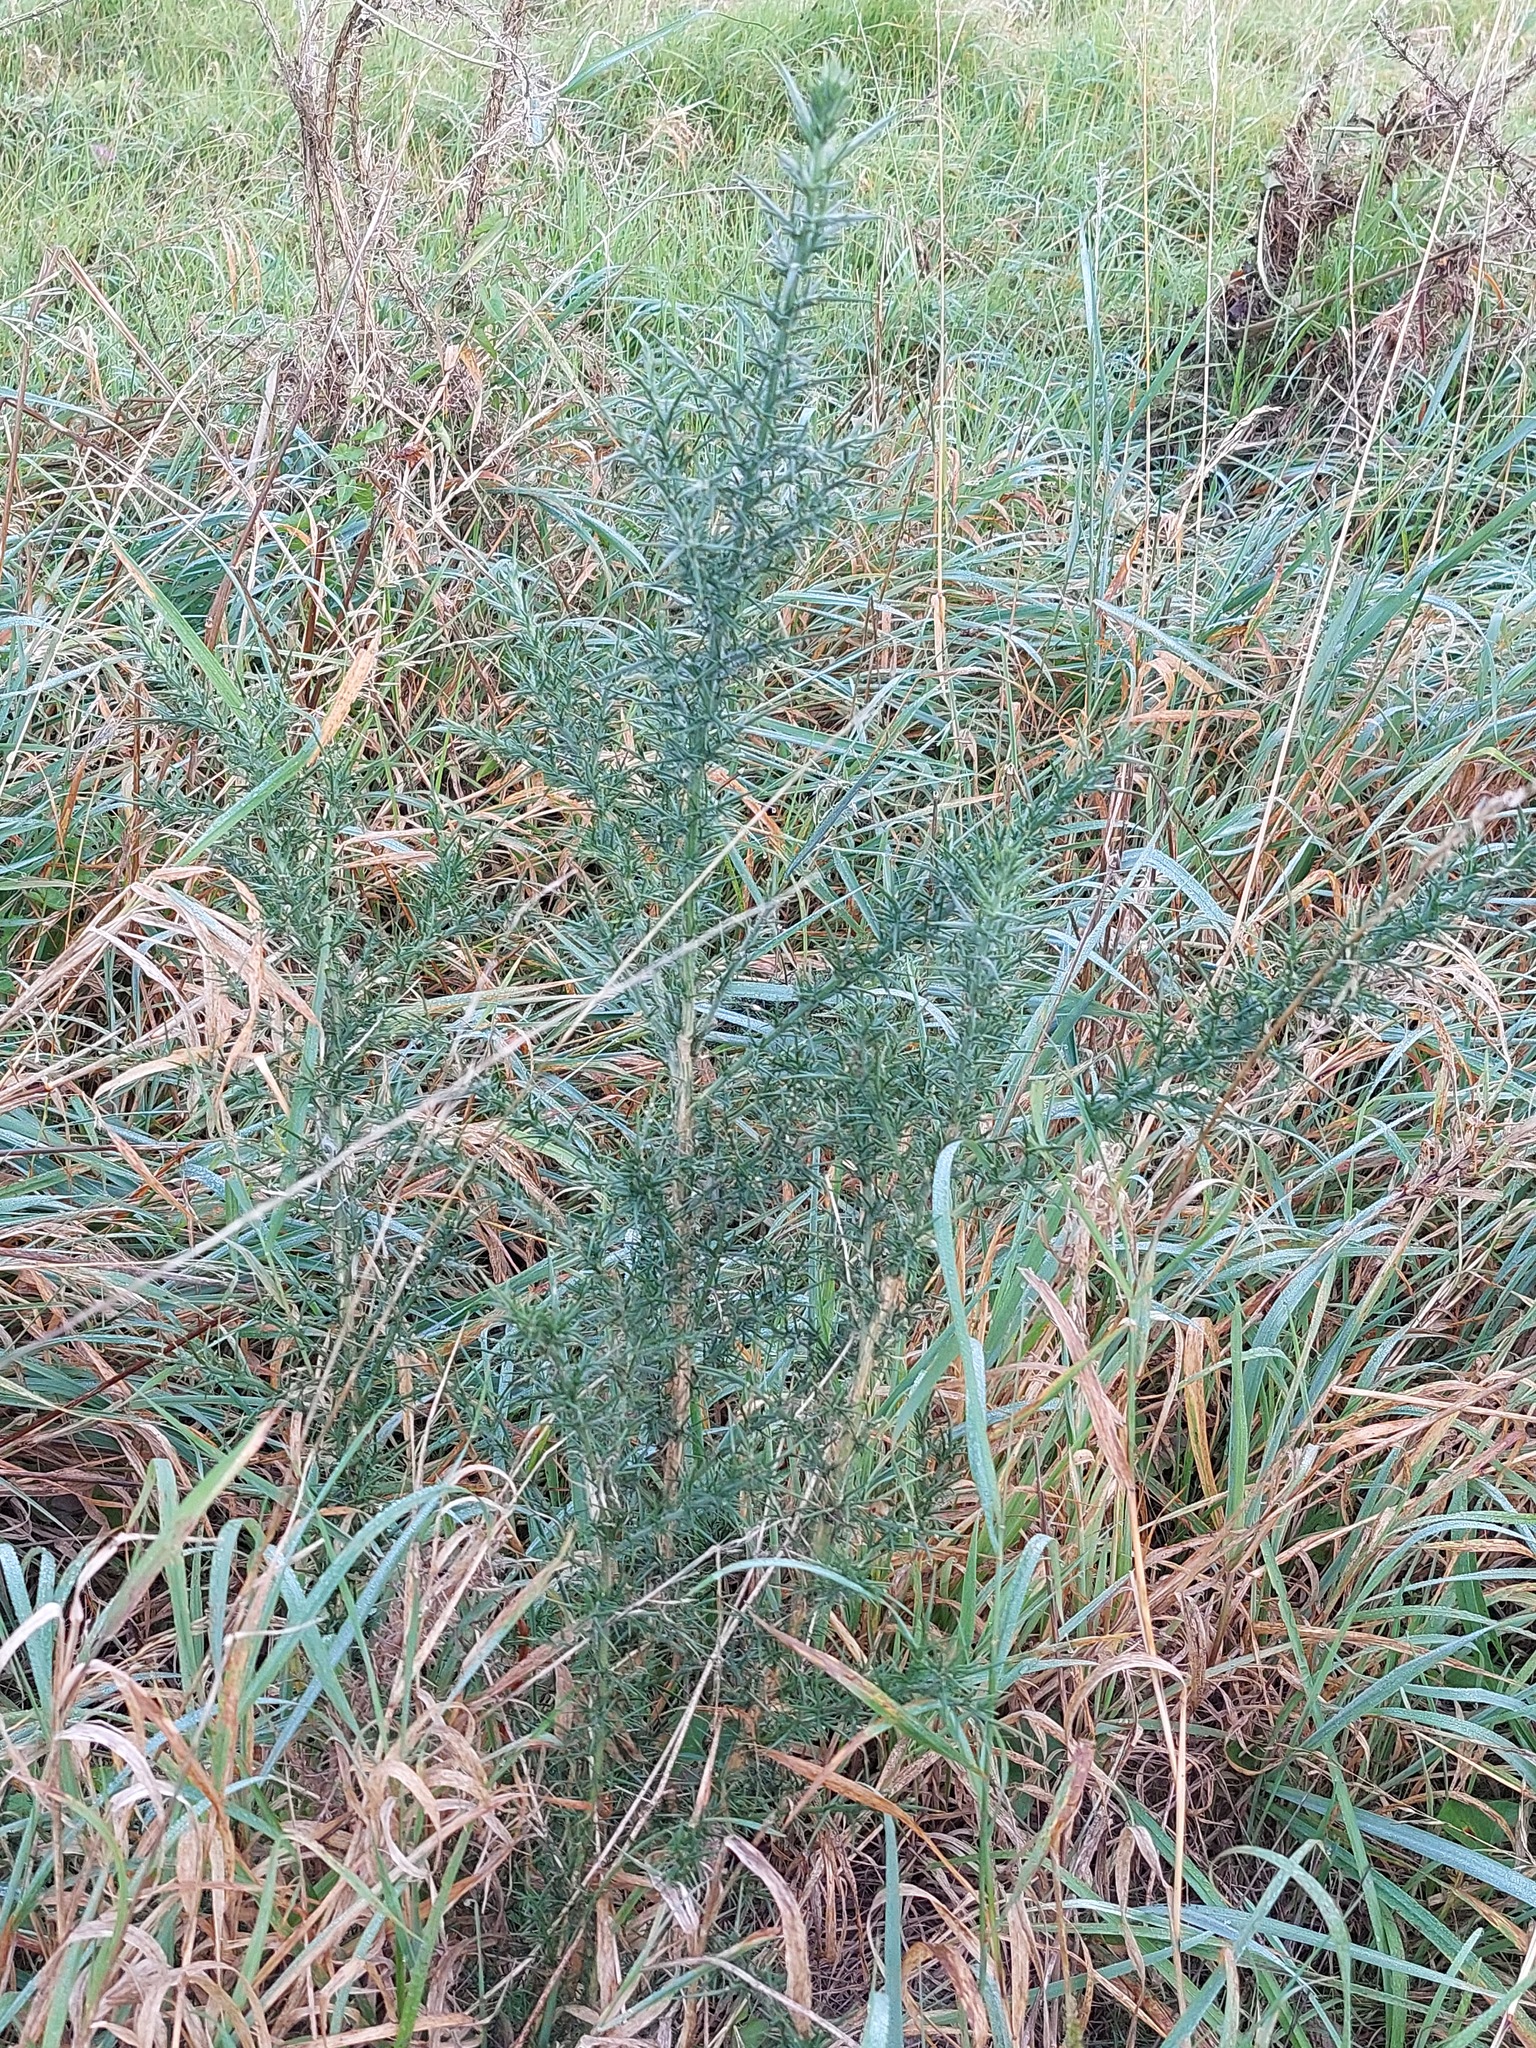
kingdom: Plantae
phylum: Tracheophyta
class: Magnoliopsida
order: Fabales
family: Fabaceae
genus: Ulex
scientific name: Ulex europaeus
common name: Common gorse
